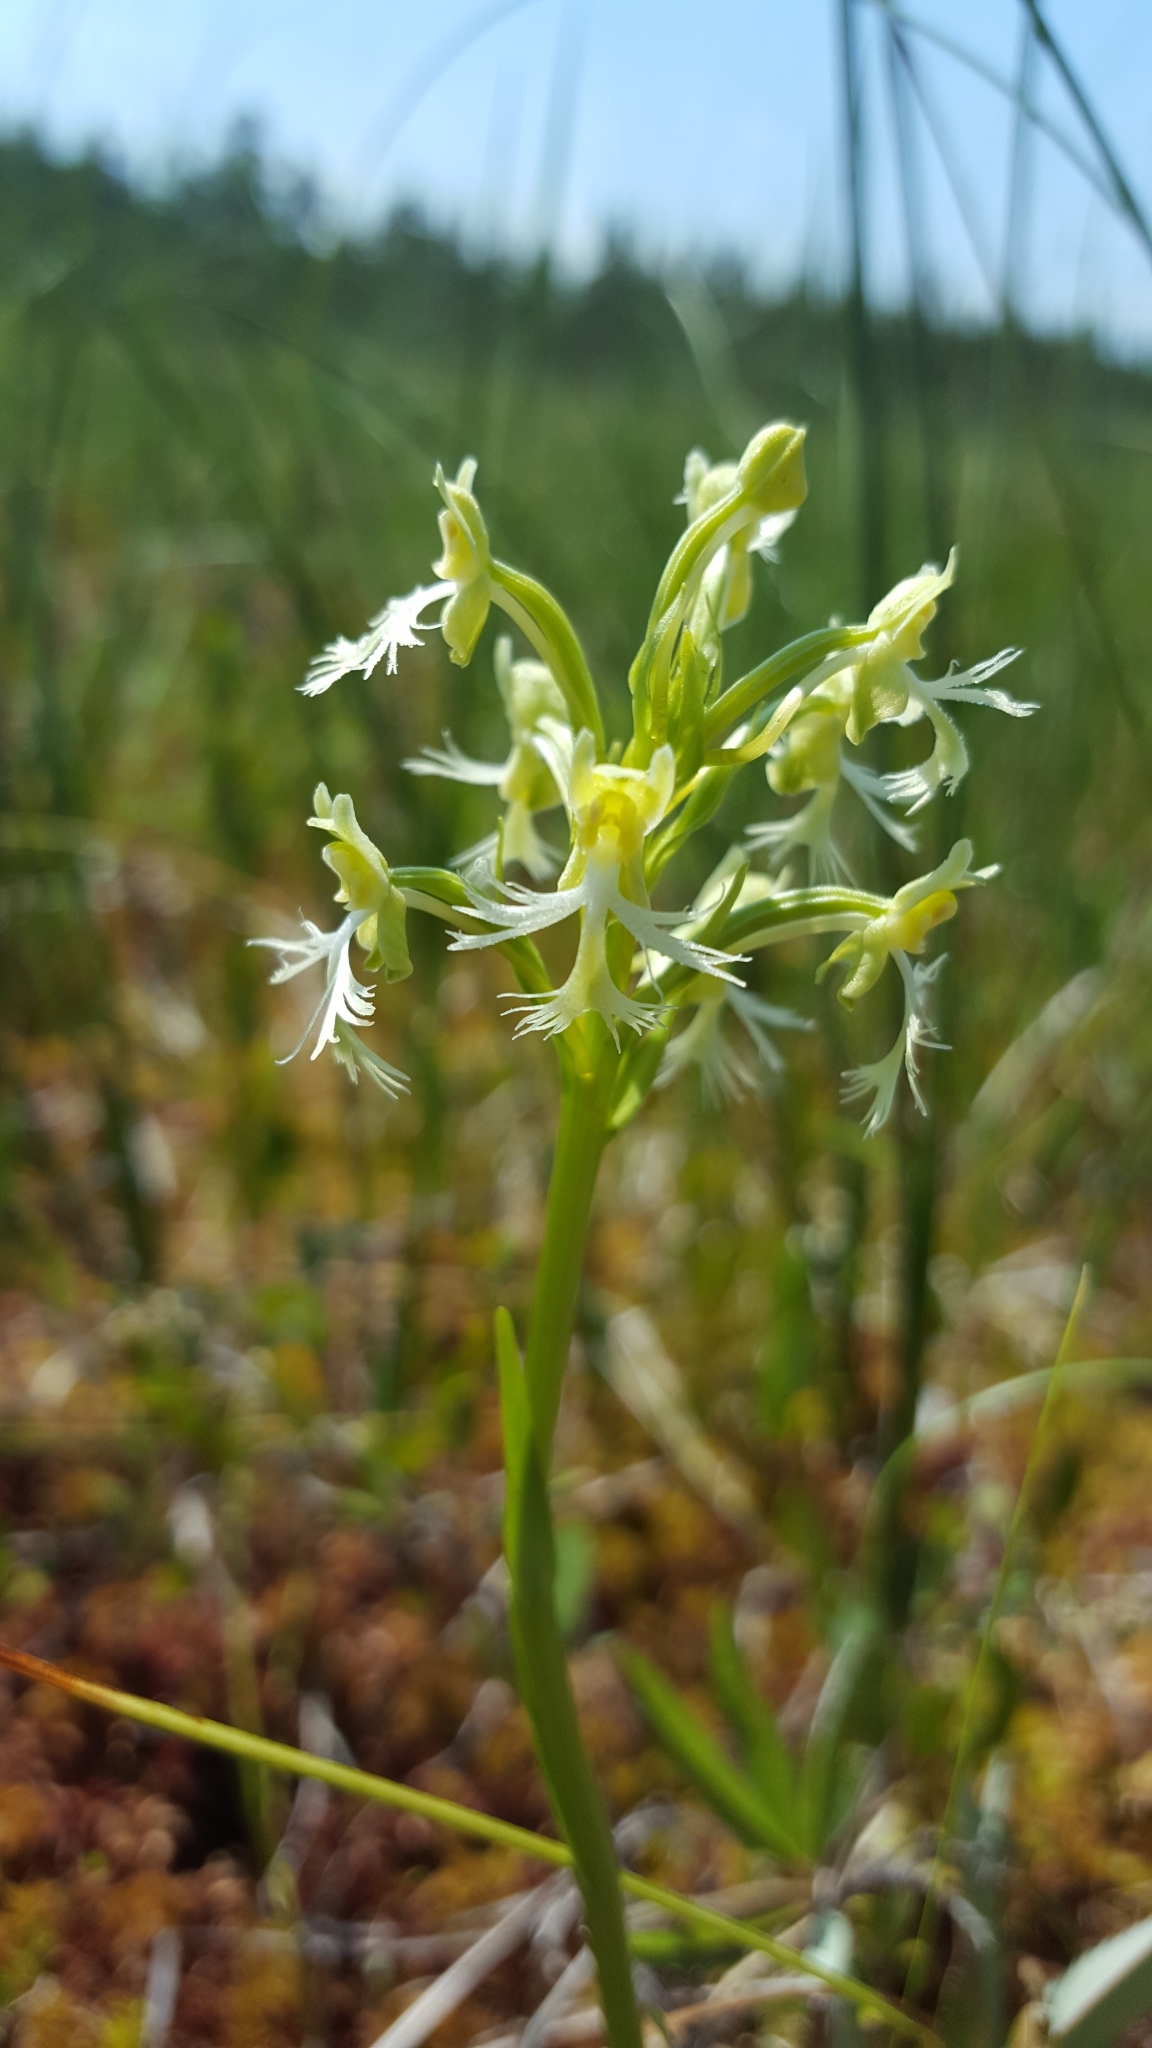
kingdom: Plantae
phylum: Tracheophyta
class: Liliopsida
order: Asparagales
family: Orchidaceae
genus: Platanthera
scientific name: Platanthera lacera
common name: Green fringed orchid
